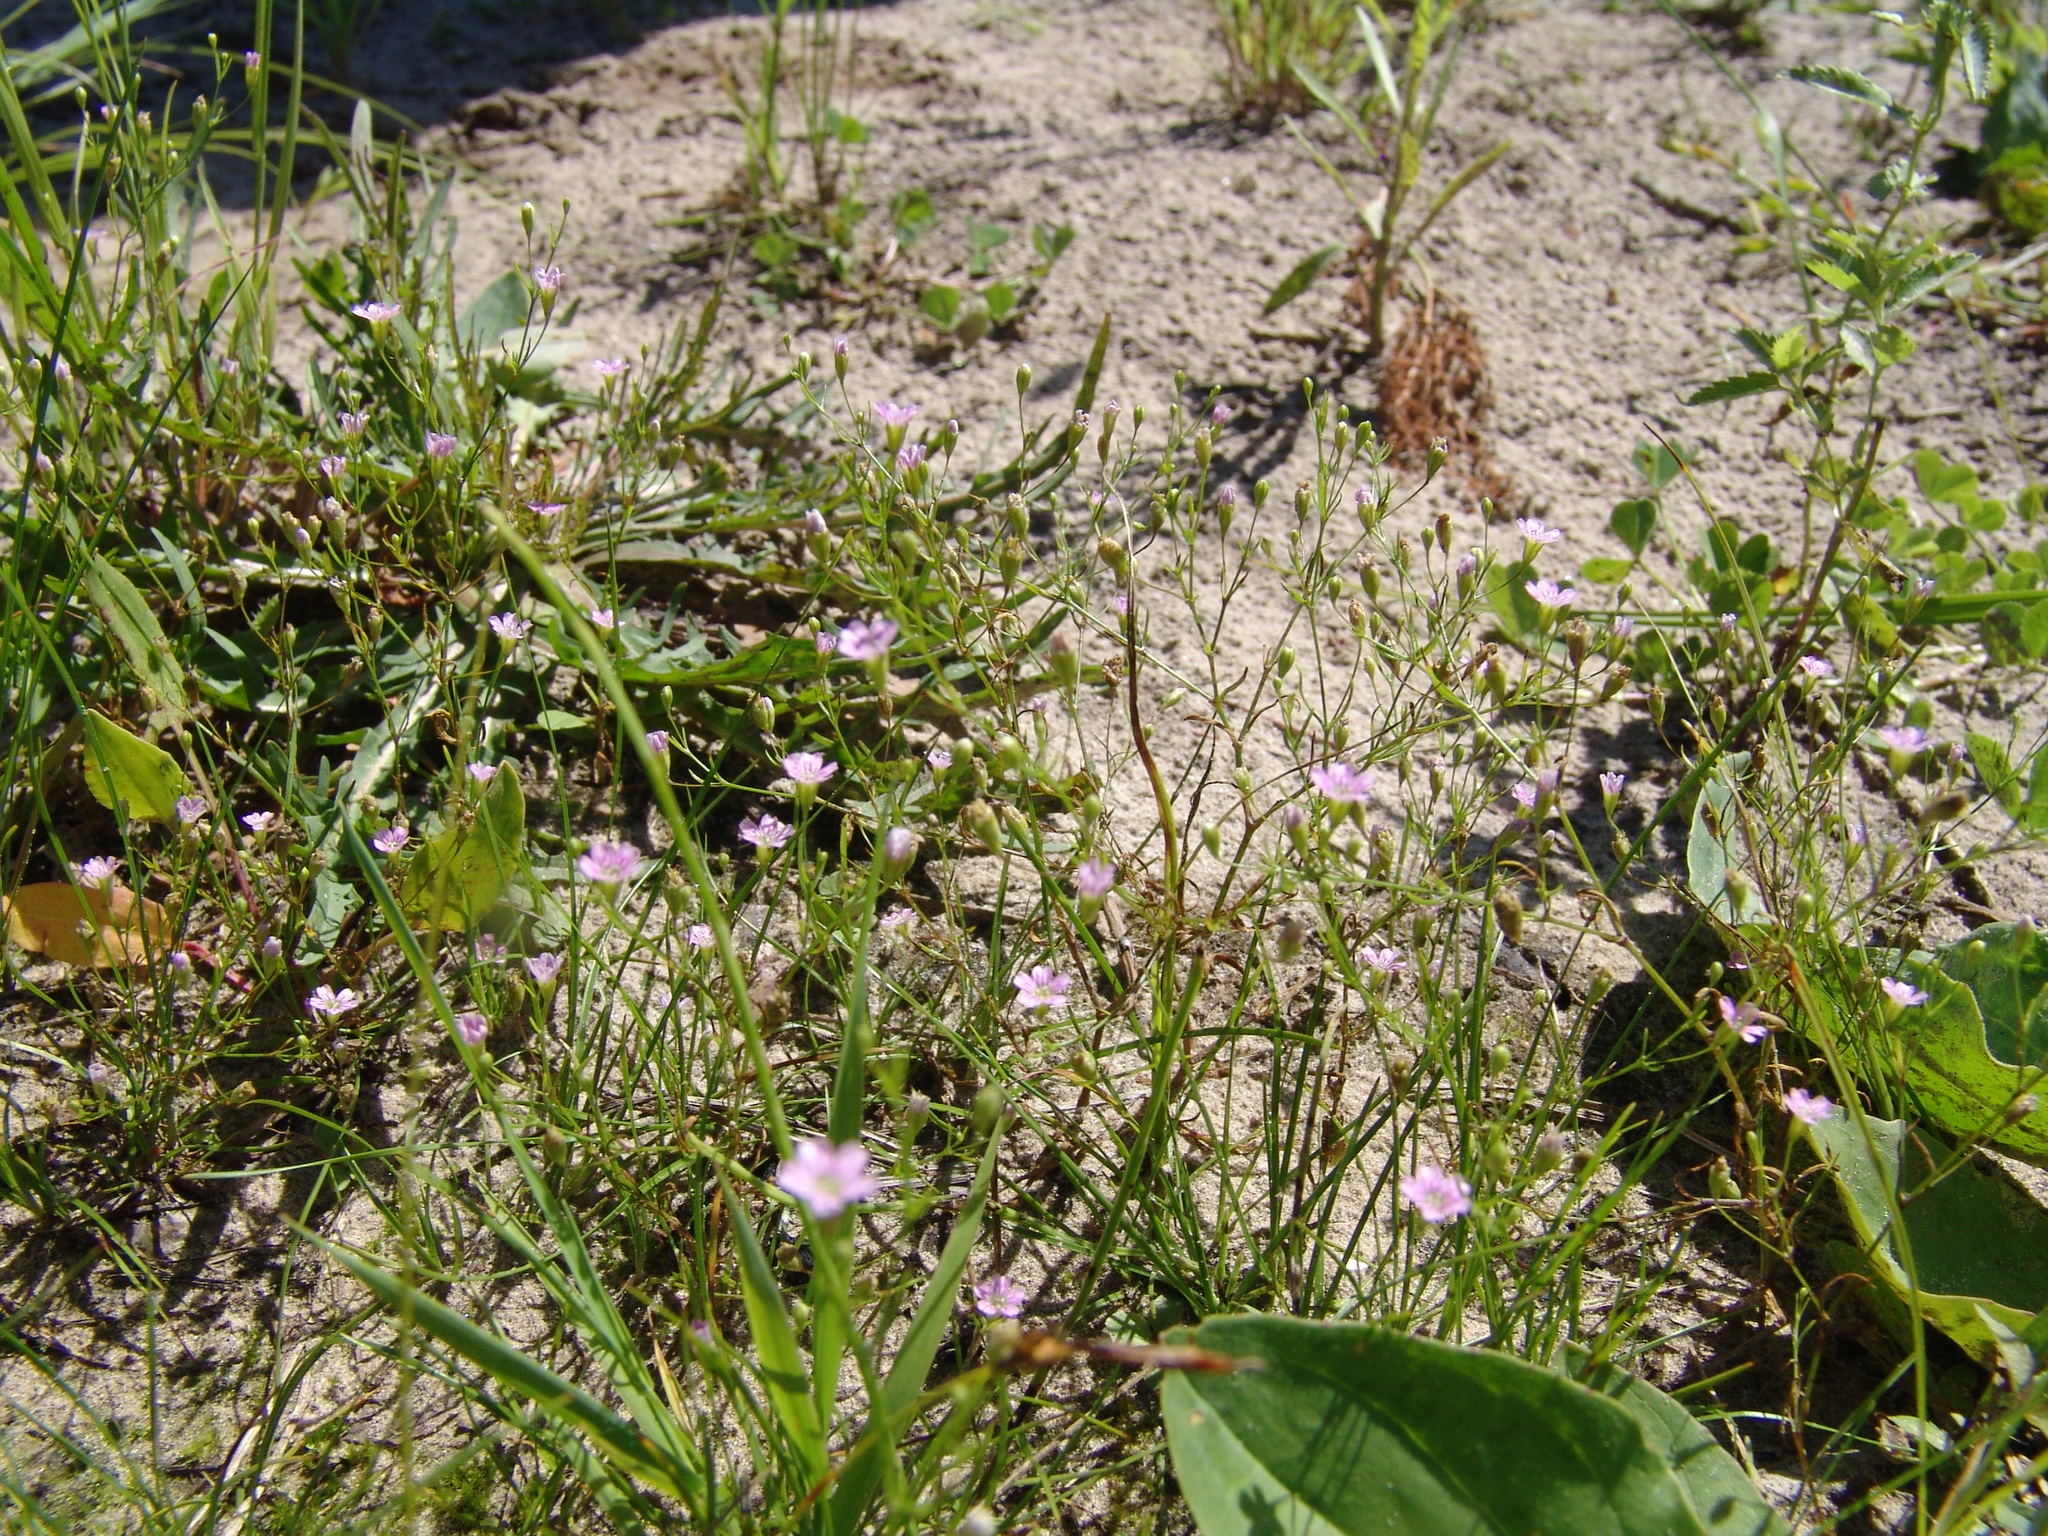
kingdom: Plantae
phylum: Tracheophyta
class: Magnoliopsida
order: Caryophyllales
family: Caryophyllaceae
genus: Psammophiliella
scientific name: Psammophiliella muralis
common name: Cushion baby's-breath
